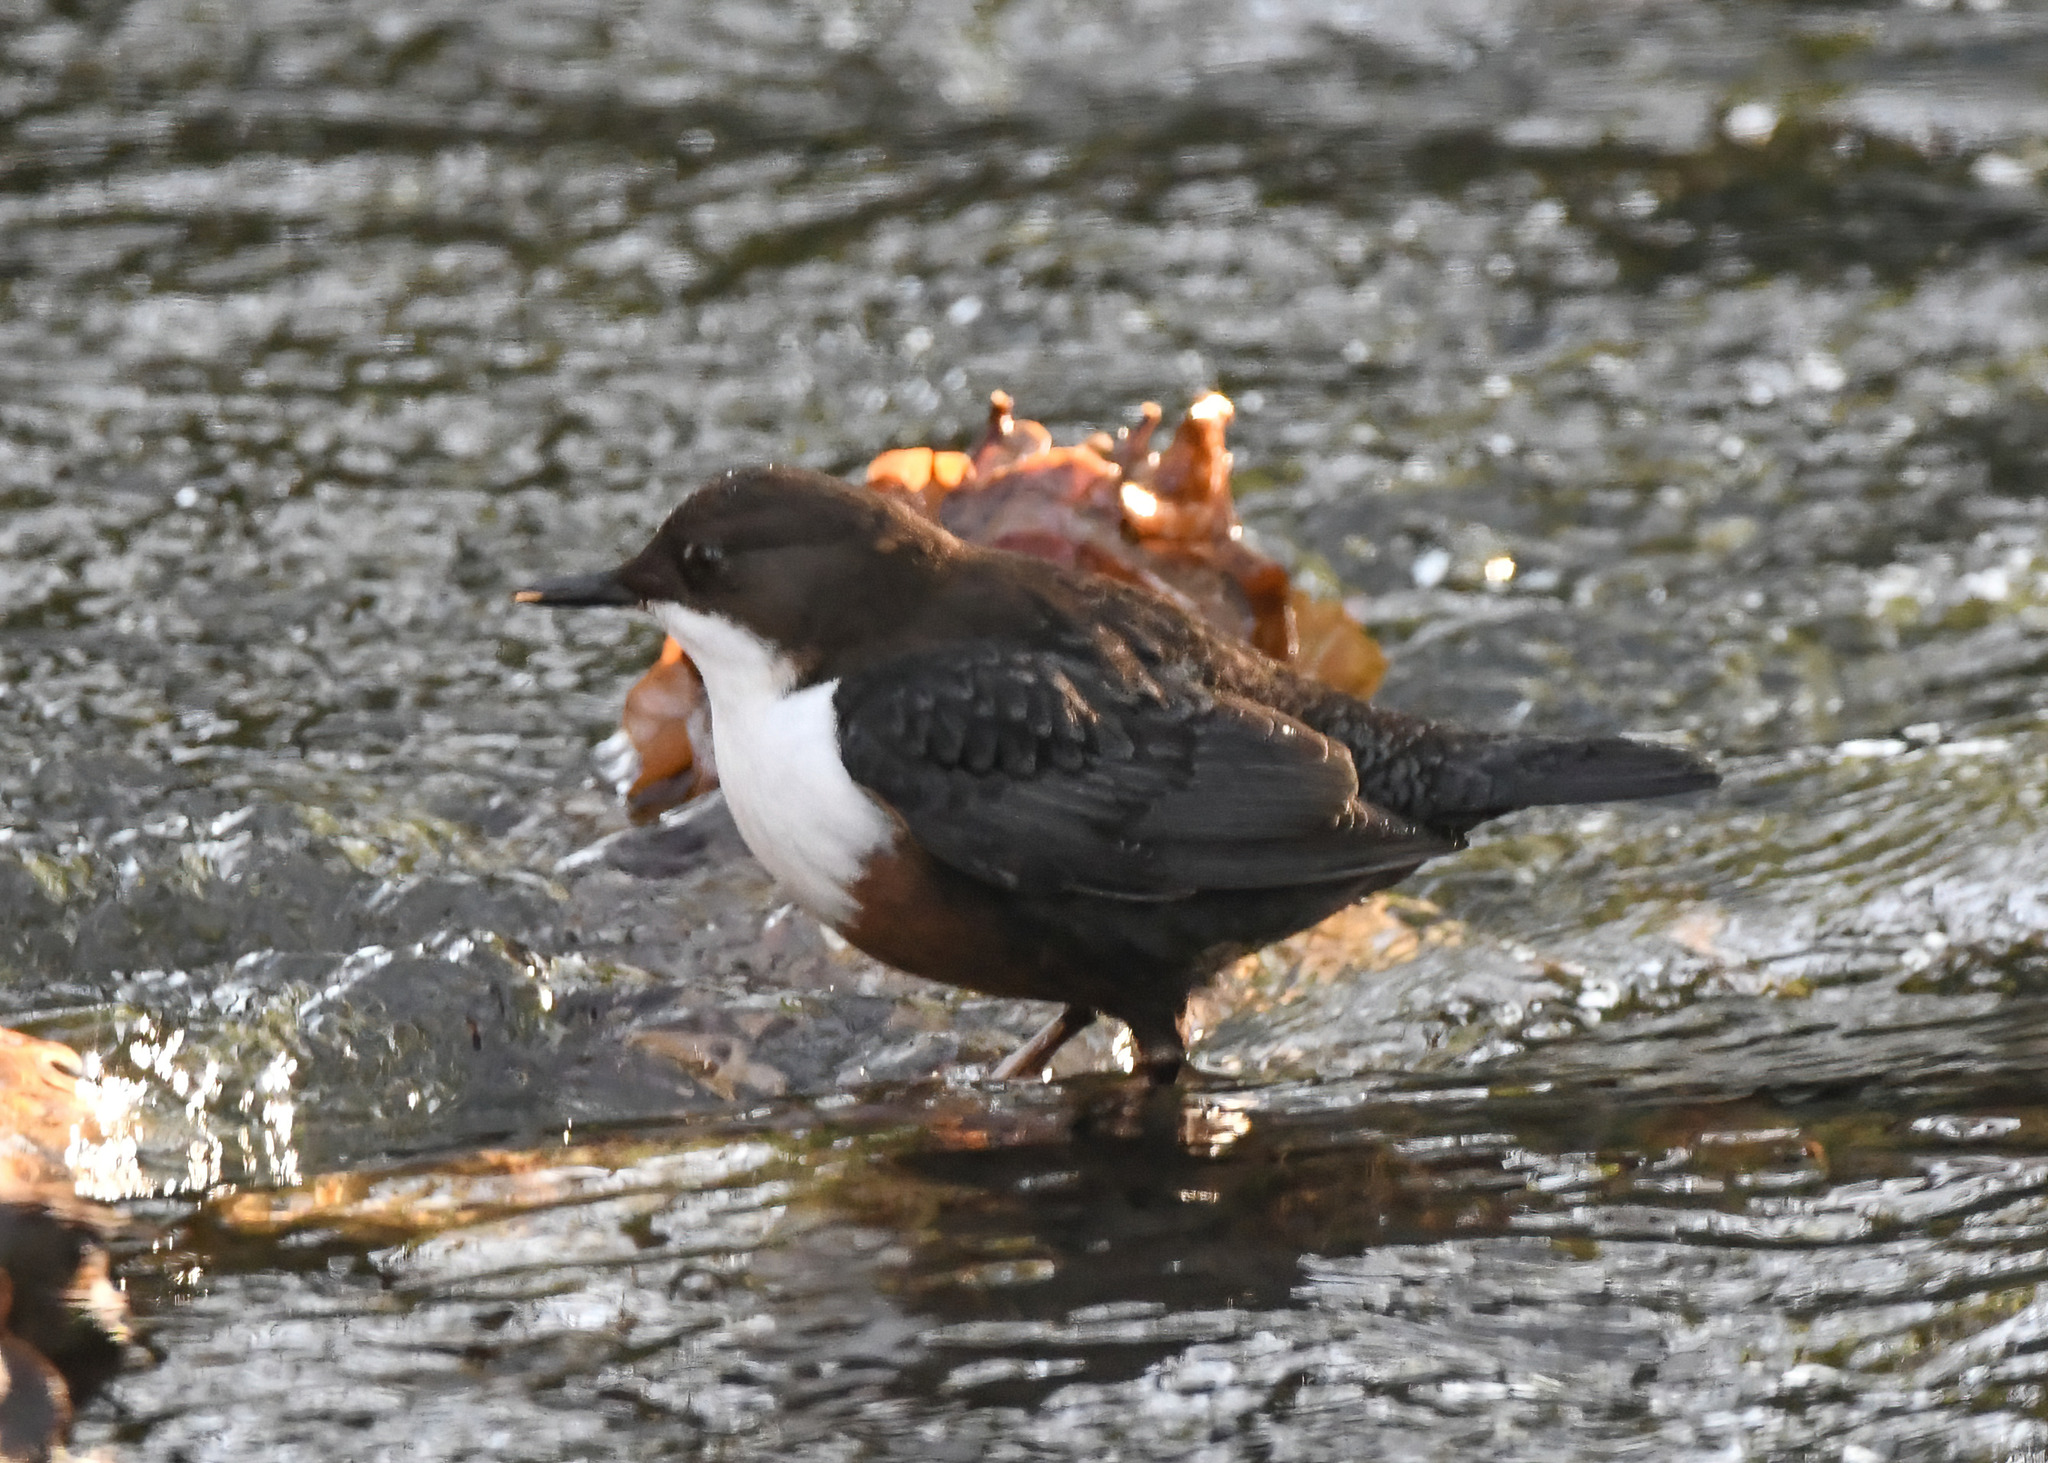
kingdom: Animalia
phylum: Chordata
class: Aves
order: Passeriformes
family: Cinclidae
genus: Cinclus
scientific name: Cinclus cinclus
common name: White-throated dipper
